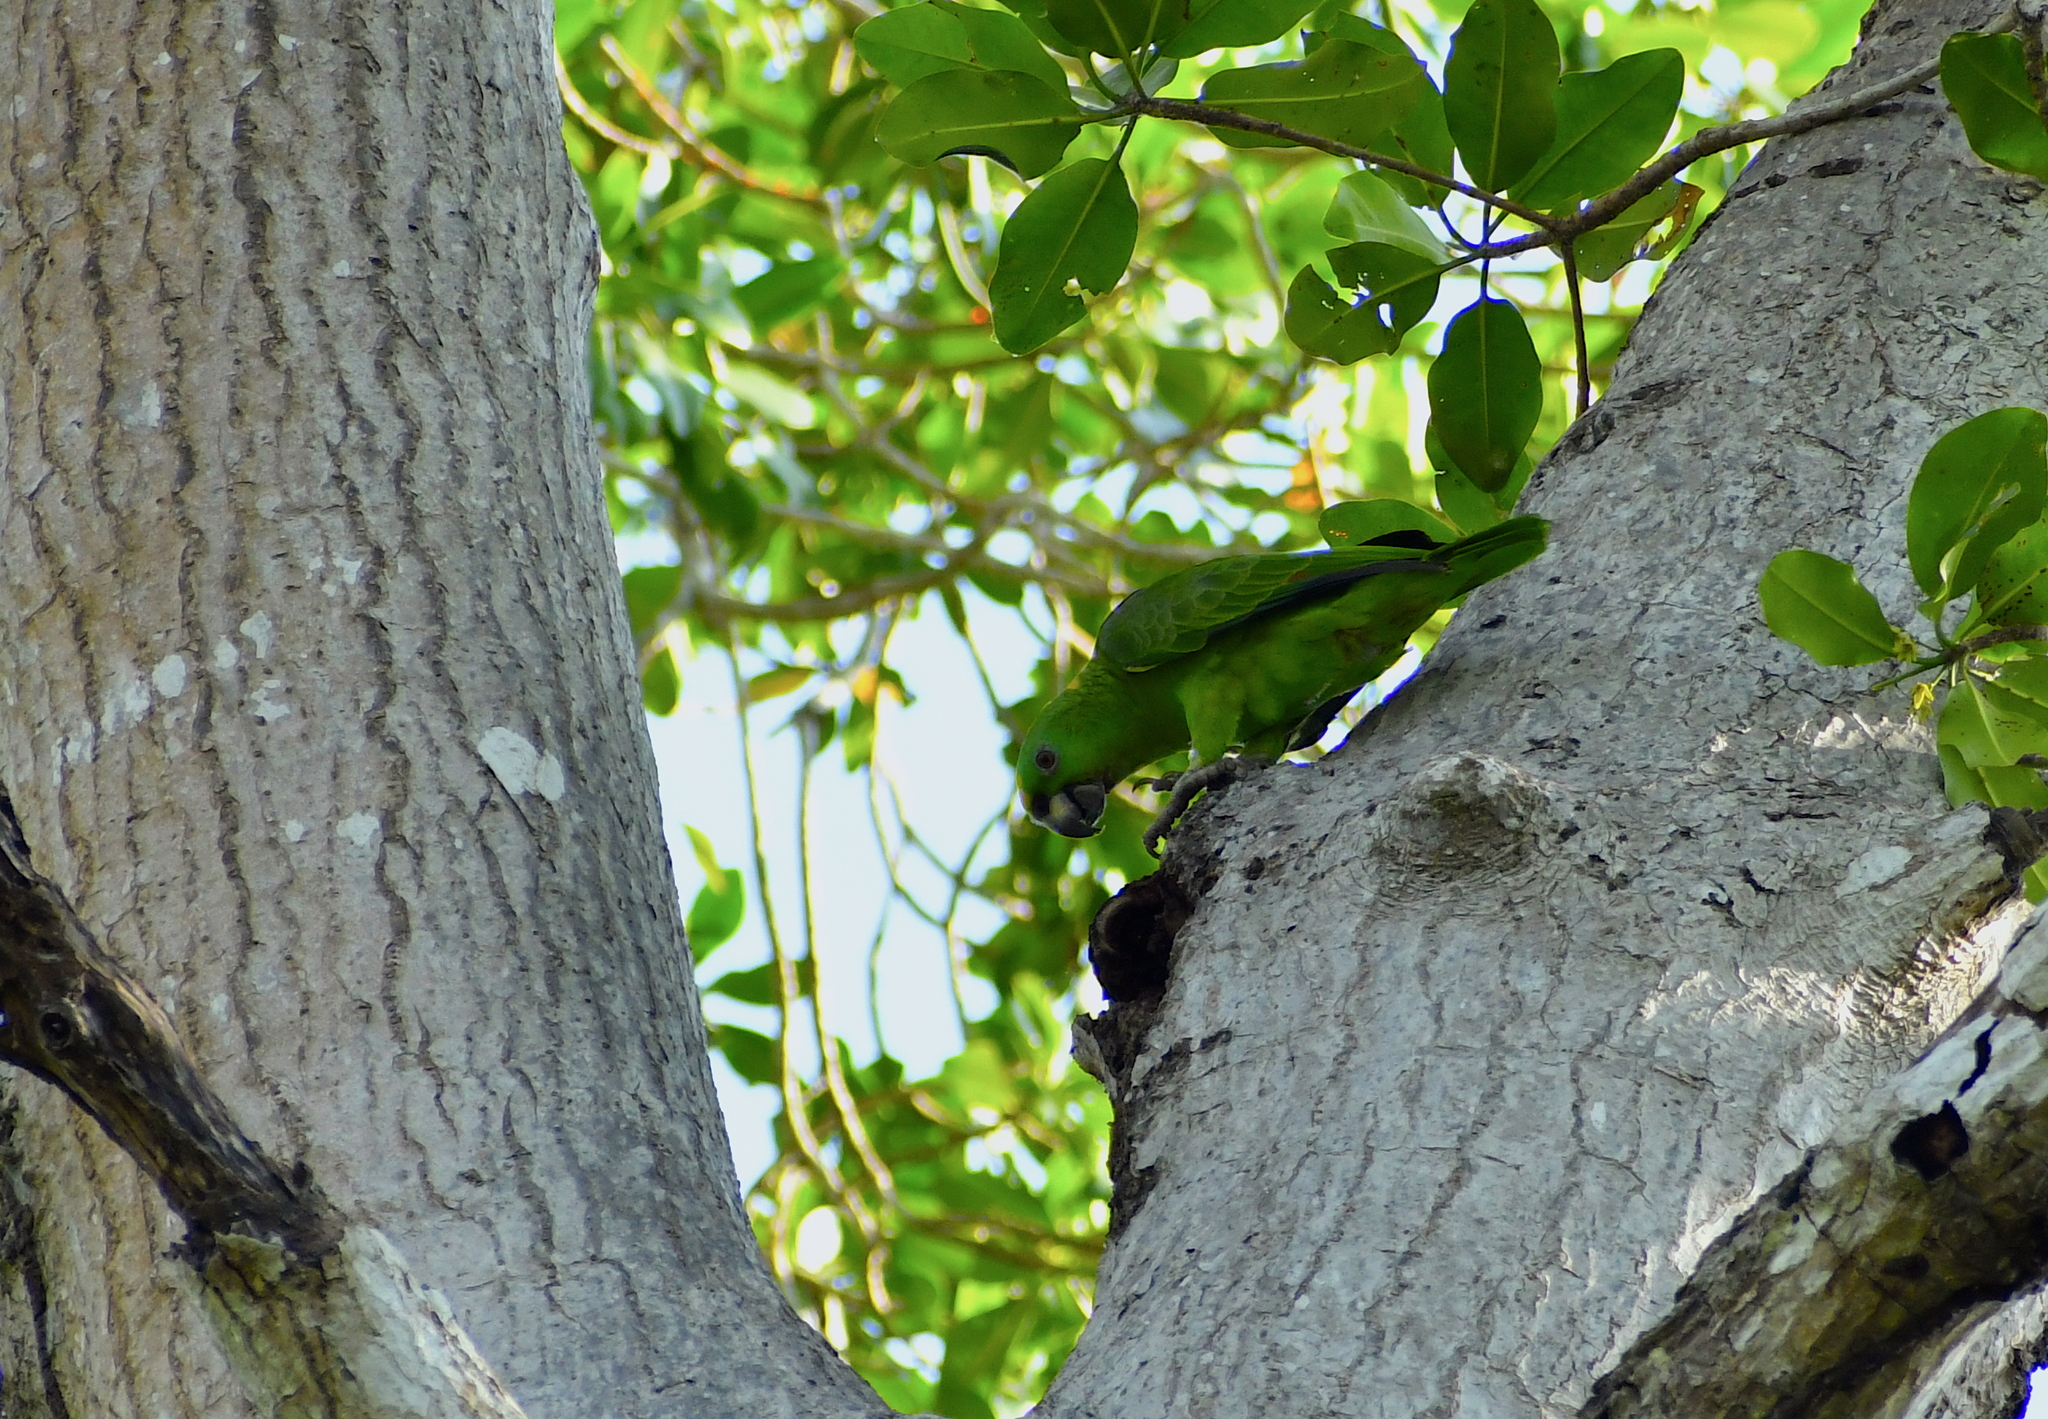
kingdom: Animalia
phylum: Chordata
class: Aves
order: Psittaciformes
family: Psittacidae
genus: Amazona
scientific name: Amazona auropalliata
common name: Yellow-naped amazon
